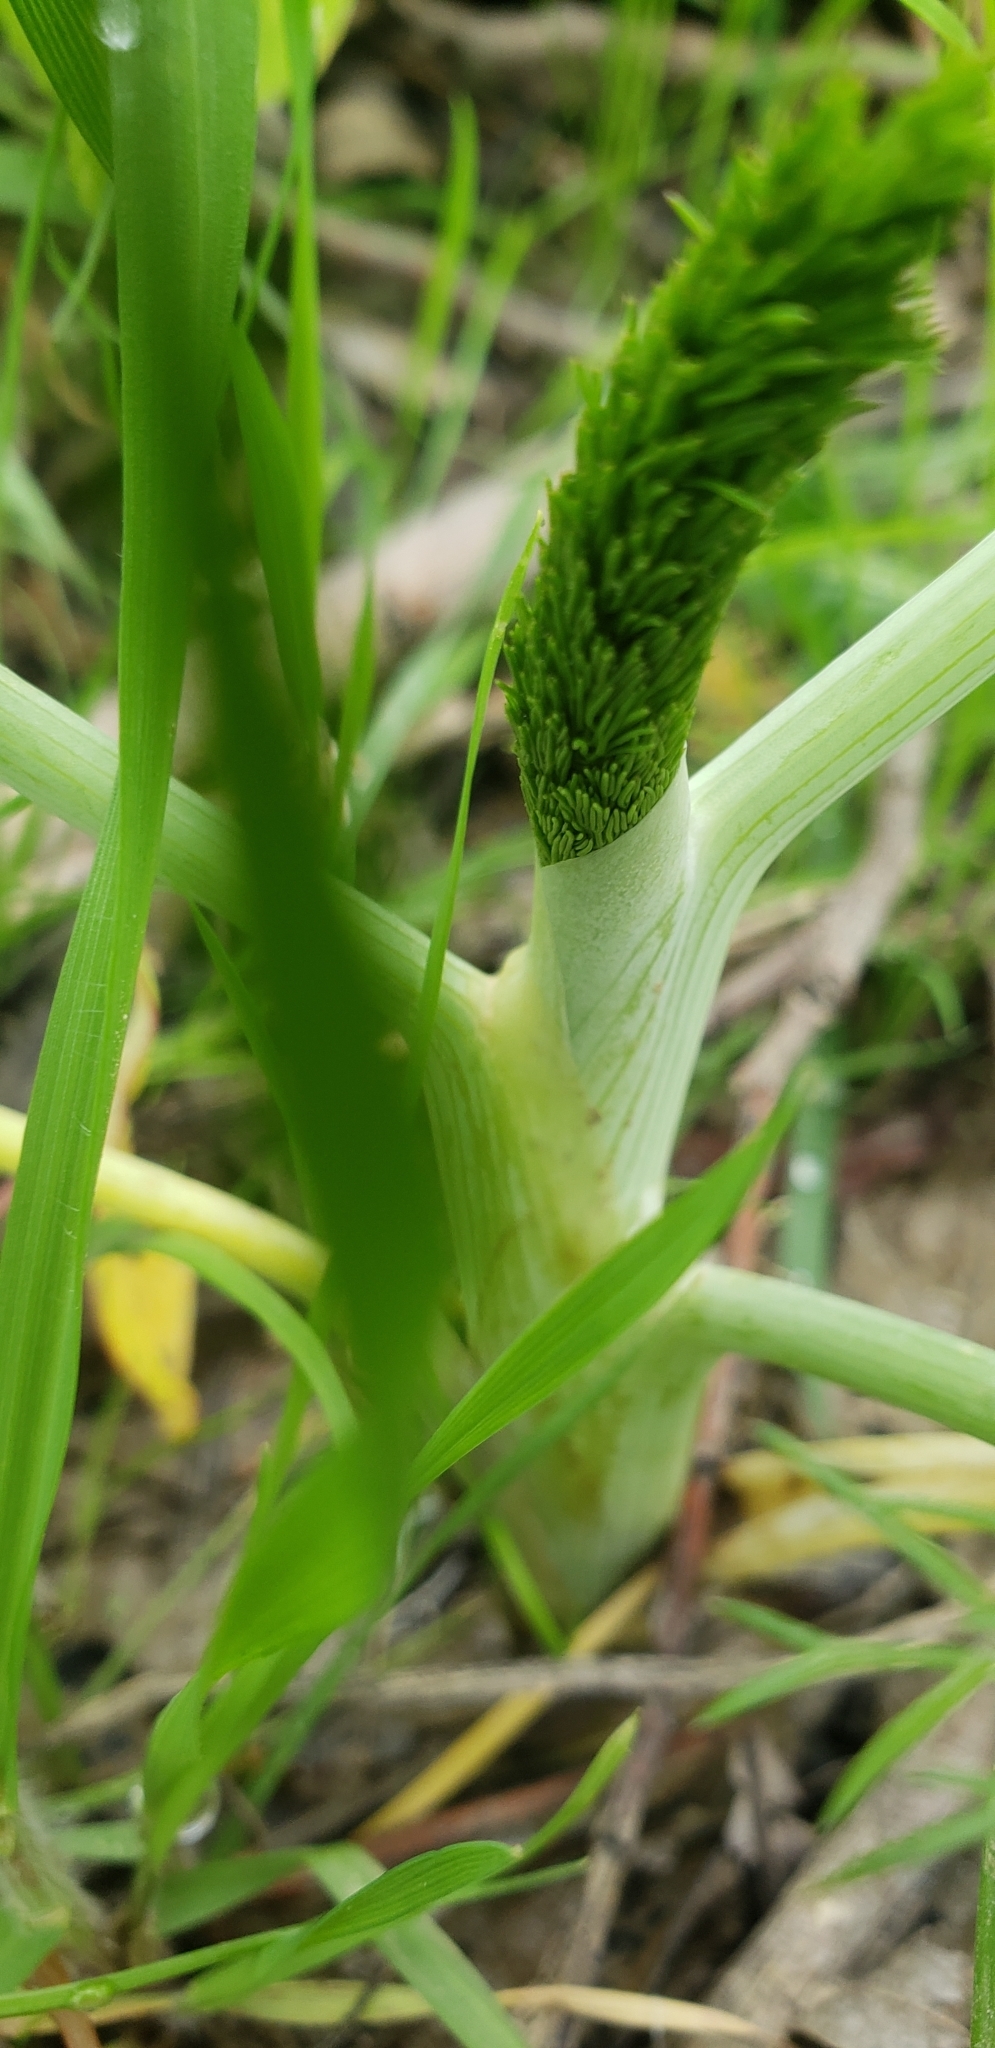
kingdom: Plantae
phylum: Tracheophyta
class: Magnoliopsida
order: Apiales
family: Apiaceae
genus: Foeniculum
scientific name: Foeniculum vulgare
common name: Fennel
